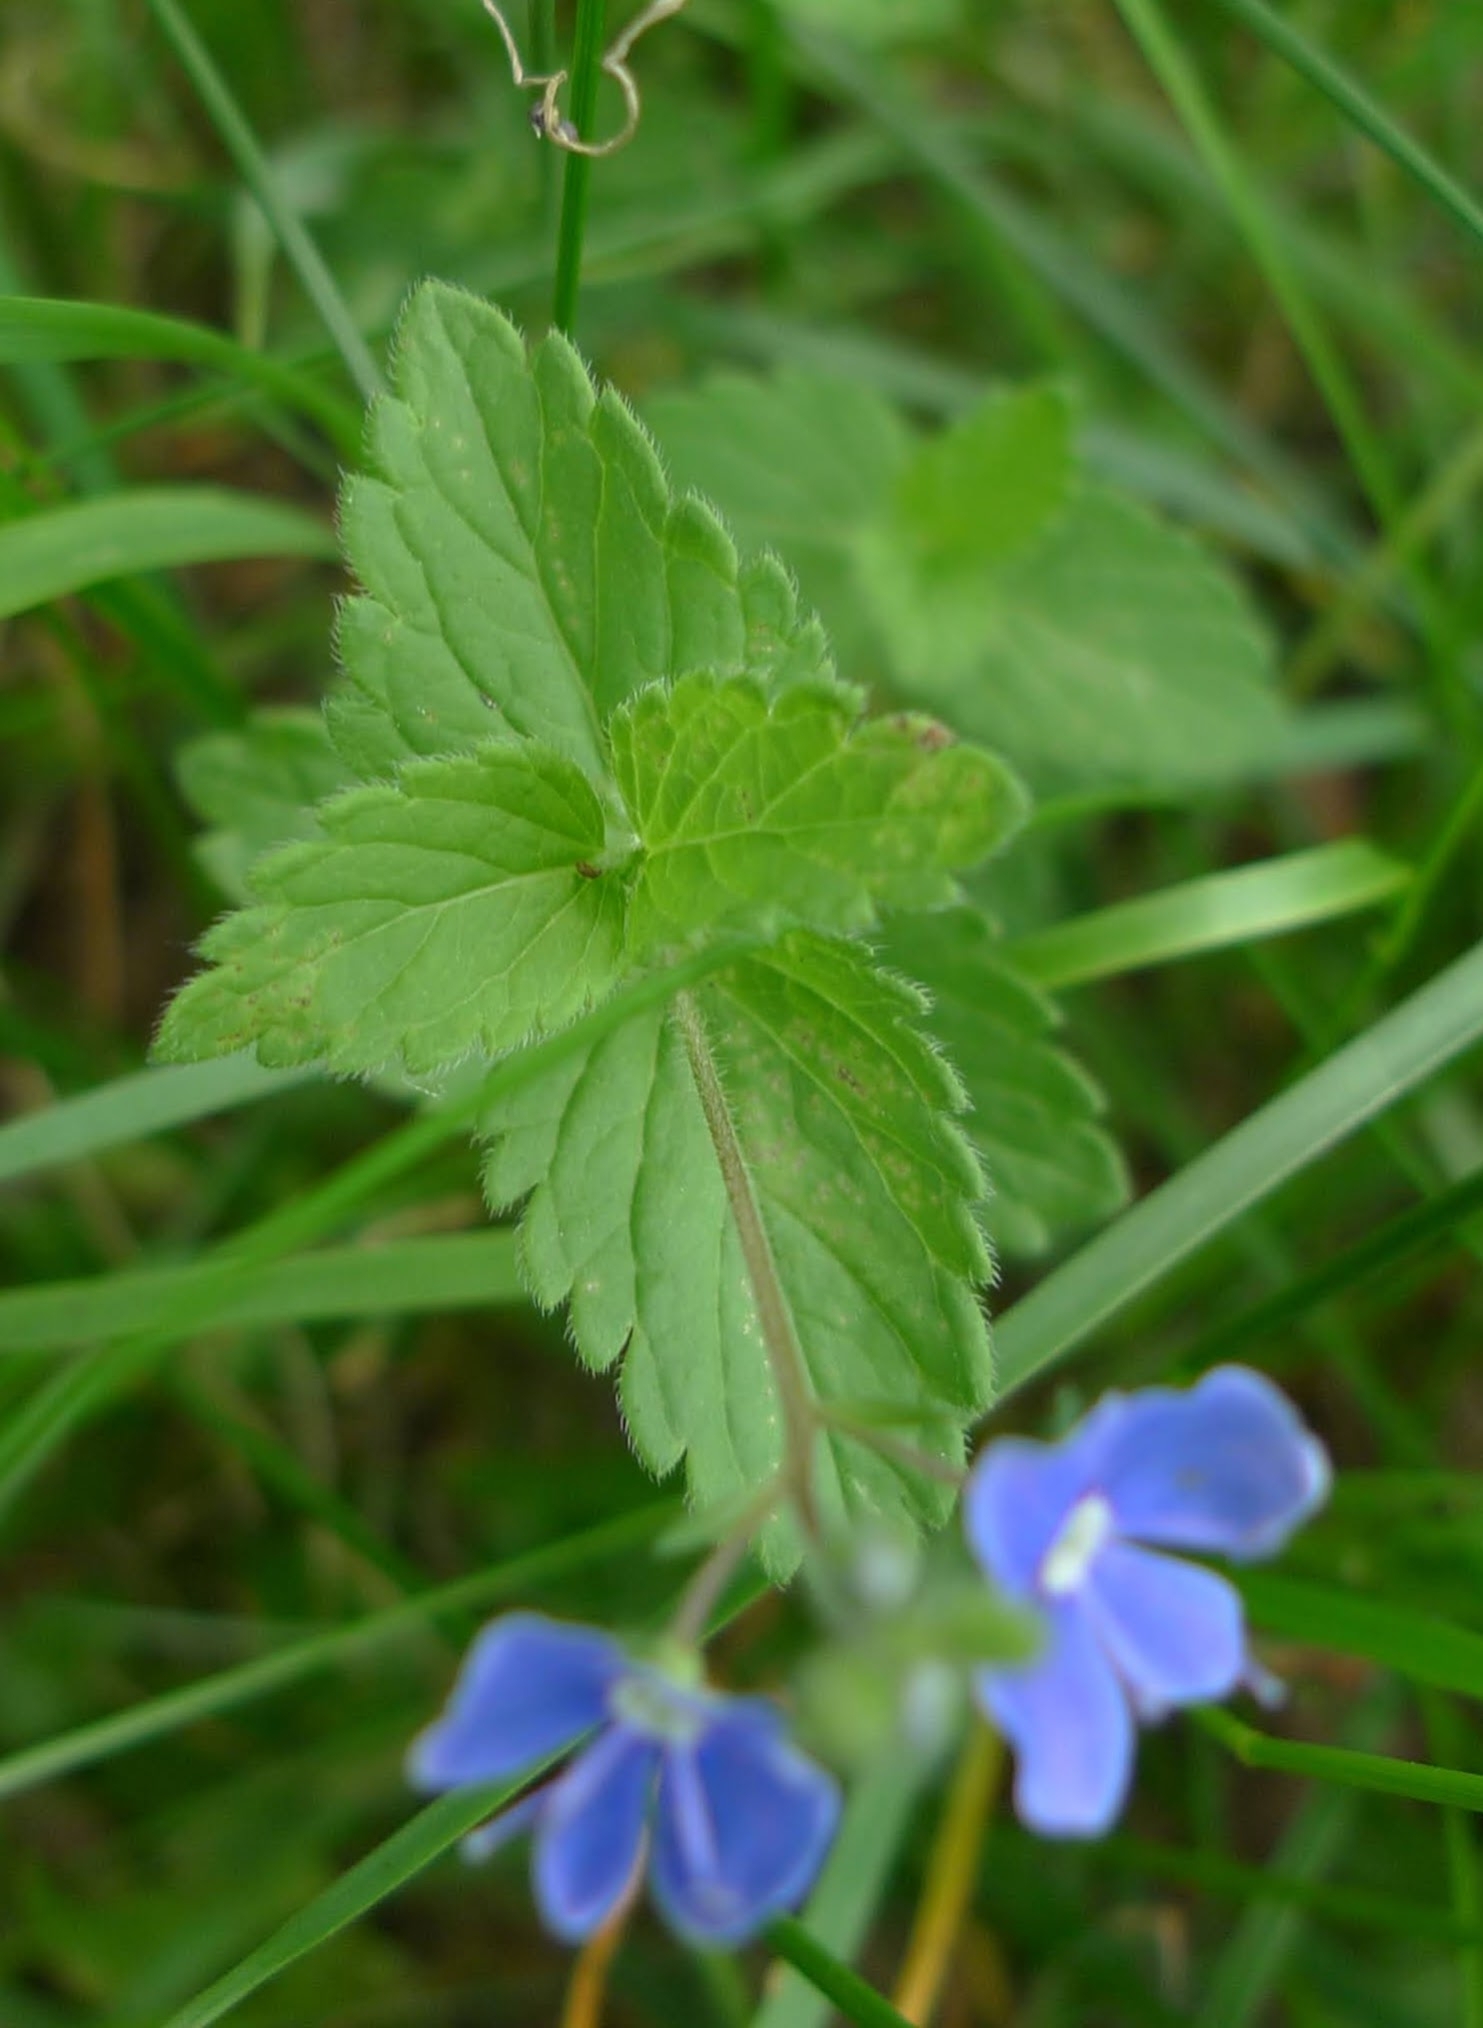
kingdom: Plantae
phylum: Tracheophyta
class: Magnoliopsida
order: Lamiales
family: Plantaginaceae
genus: Veronica
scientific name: Veronica chamaedrys
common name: Germander speedwell
